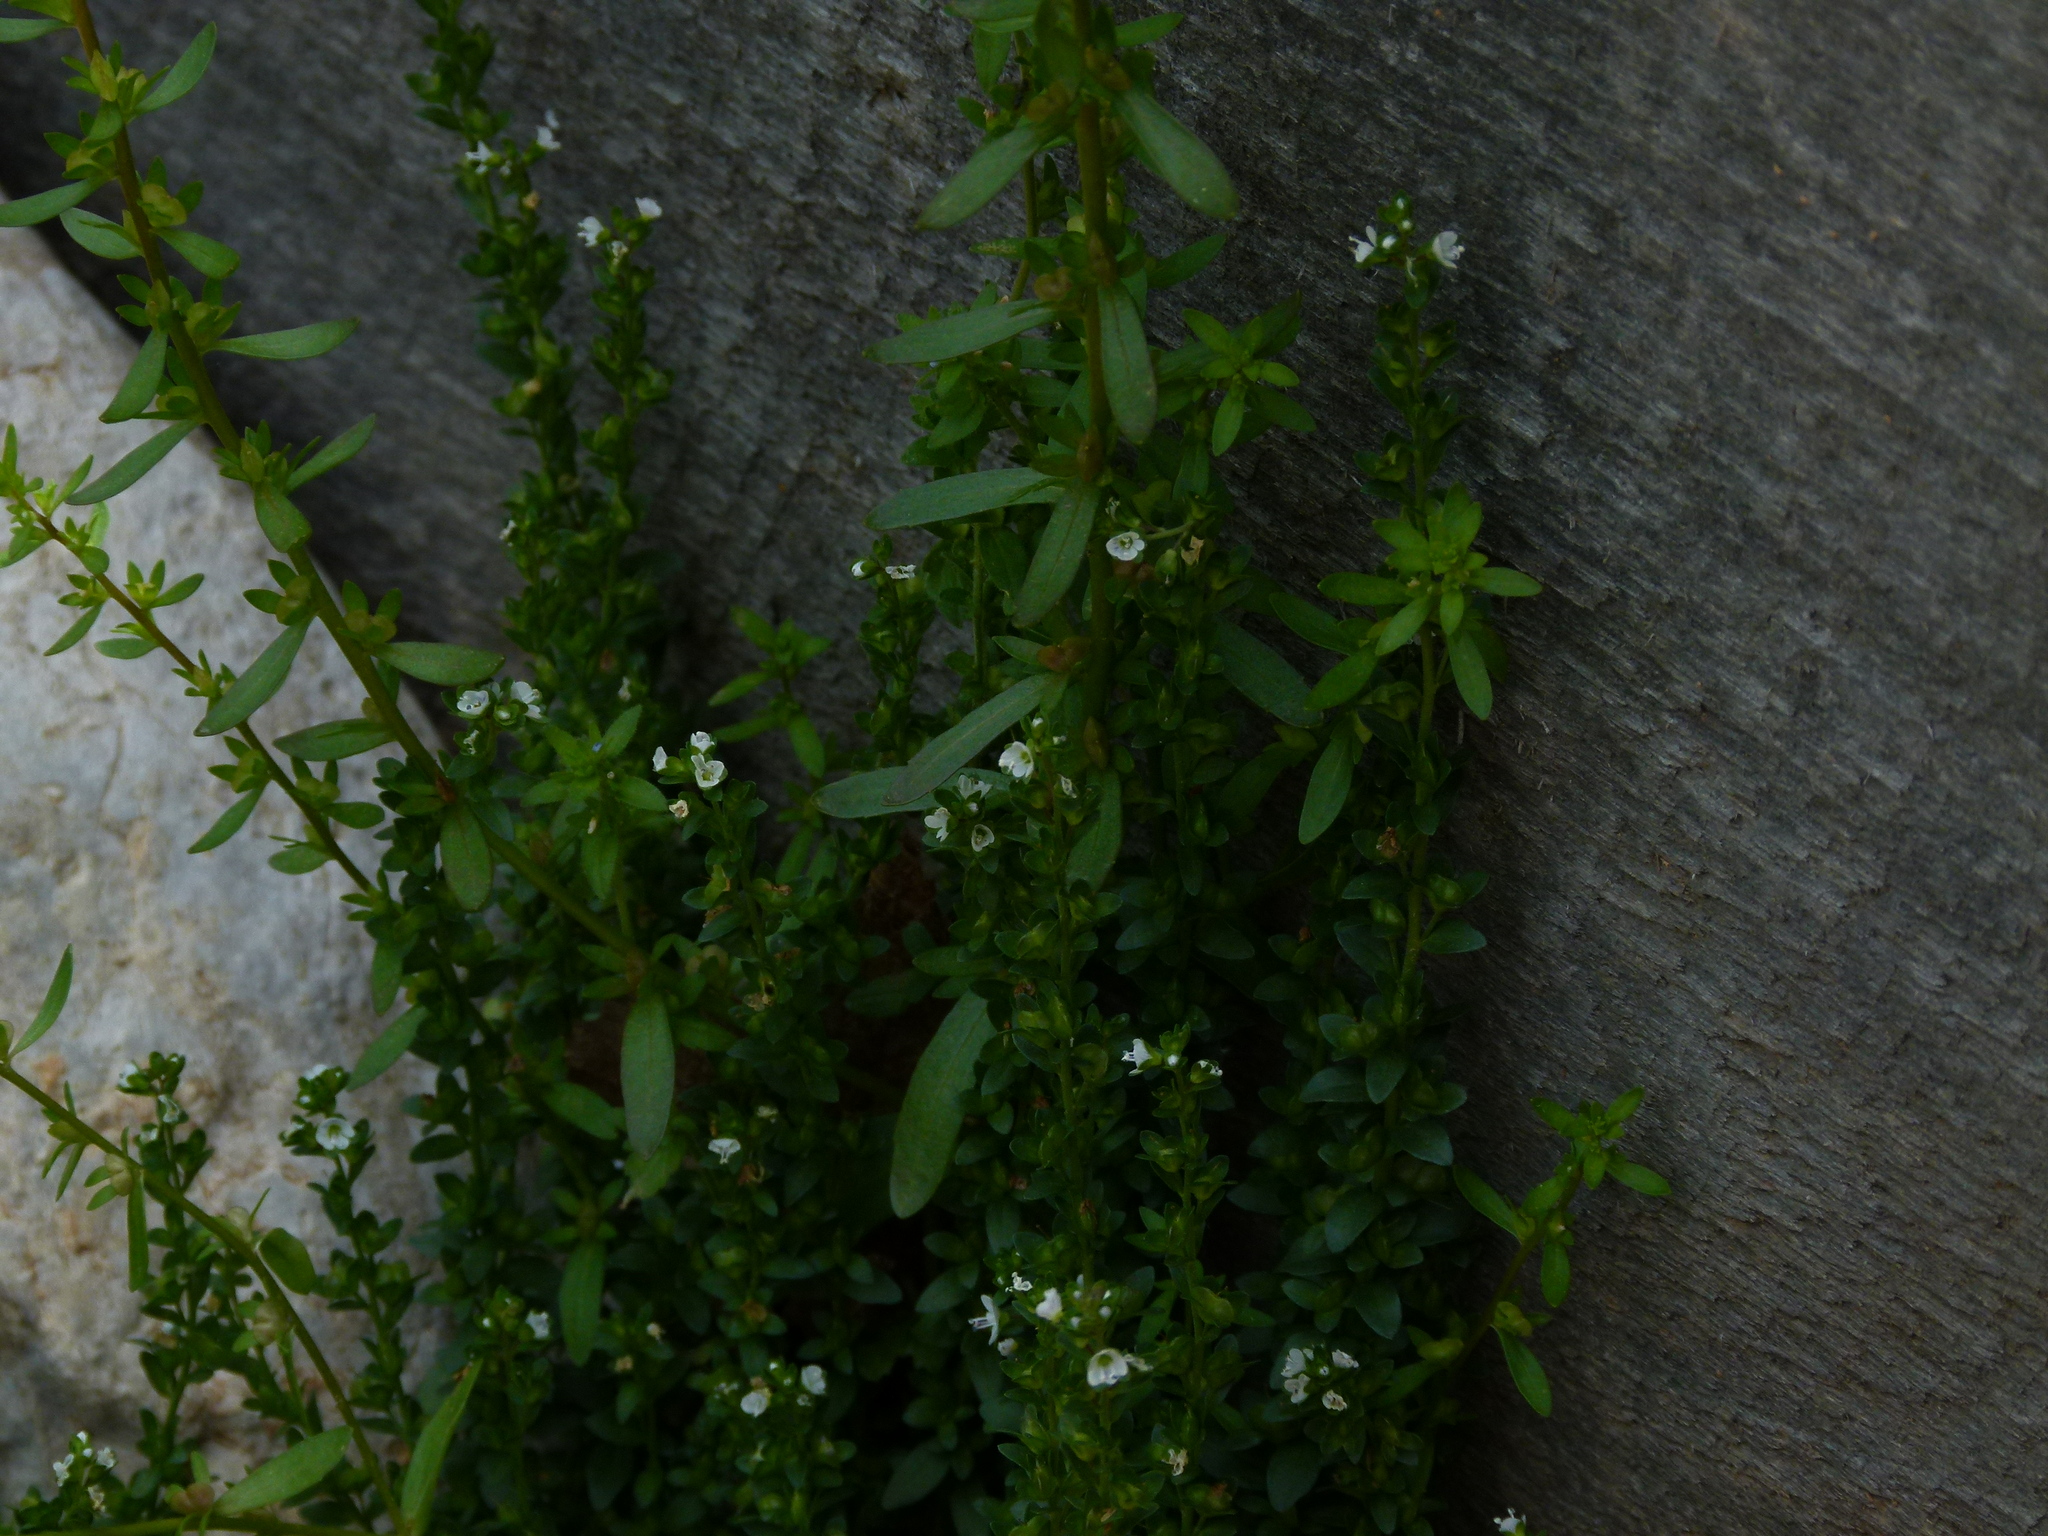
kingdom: Plantae
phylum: Tracheophyta
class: Magnoliopsida
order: Lamiales
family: Plantaginaceae
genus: Veronica
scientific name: Veronica peregrina
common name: Neckweed
